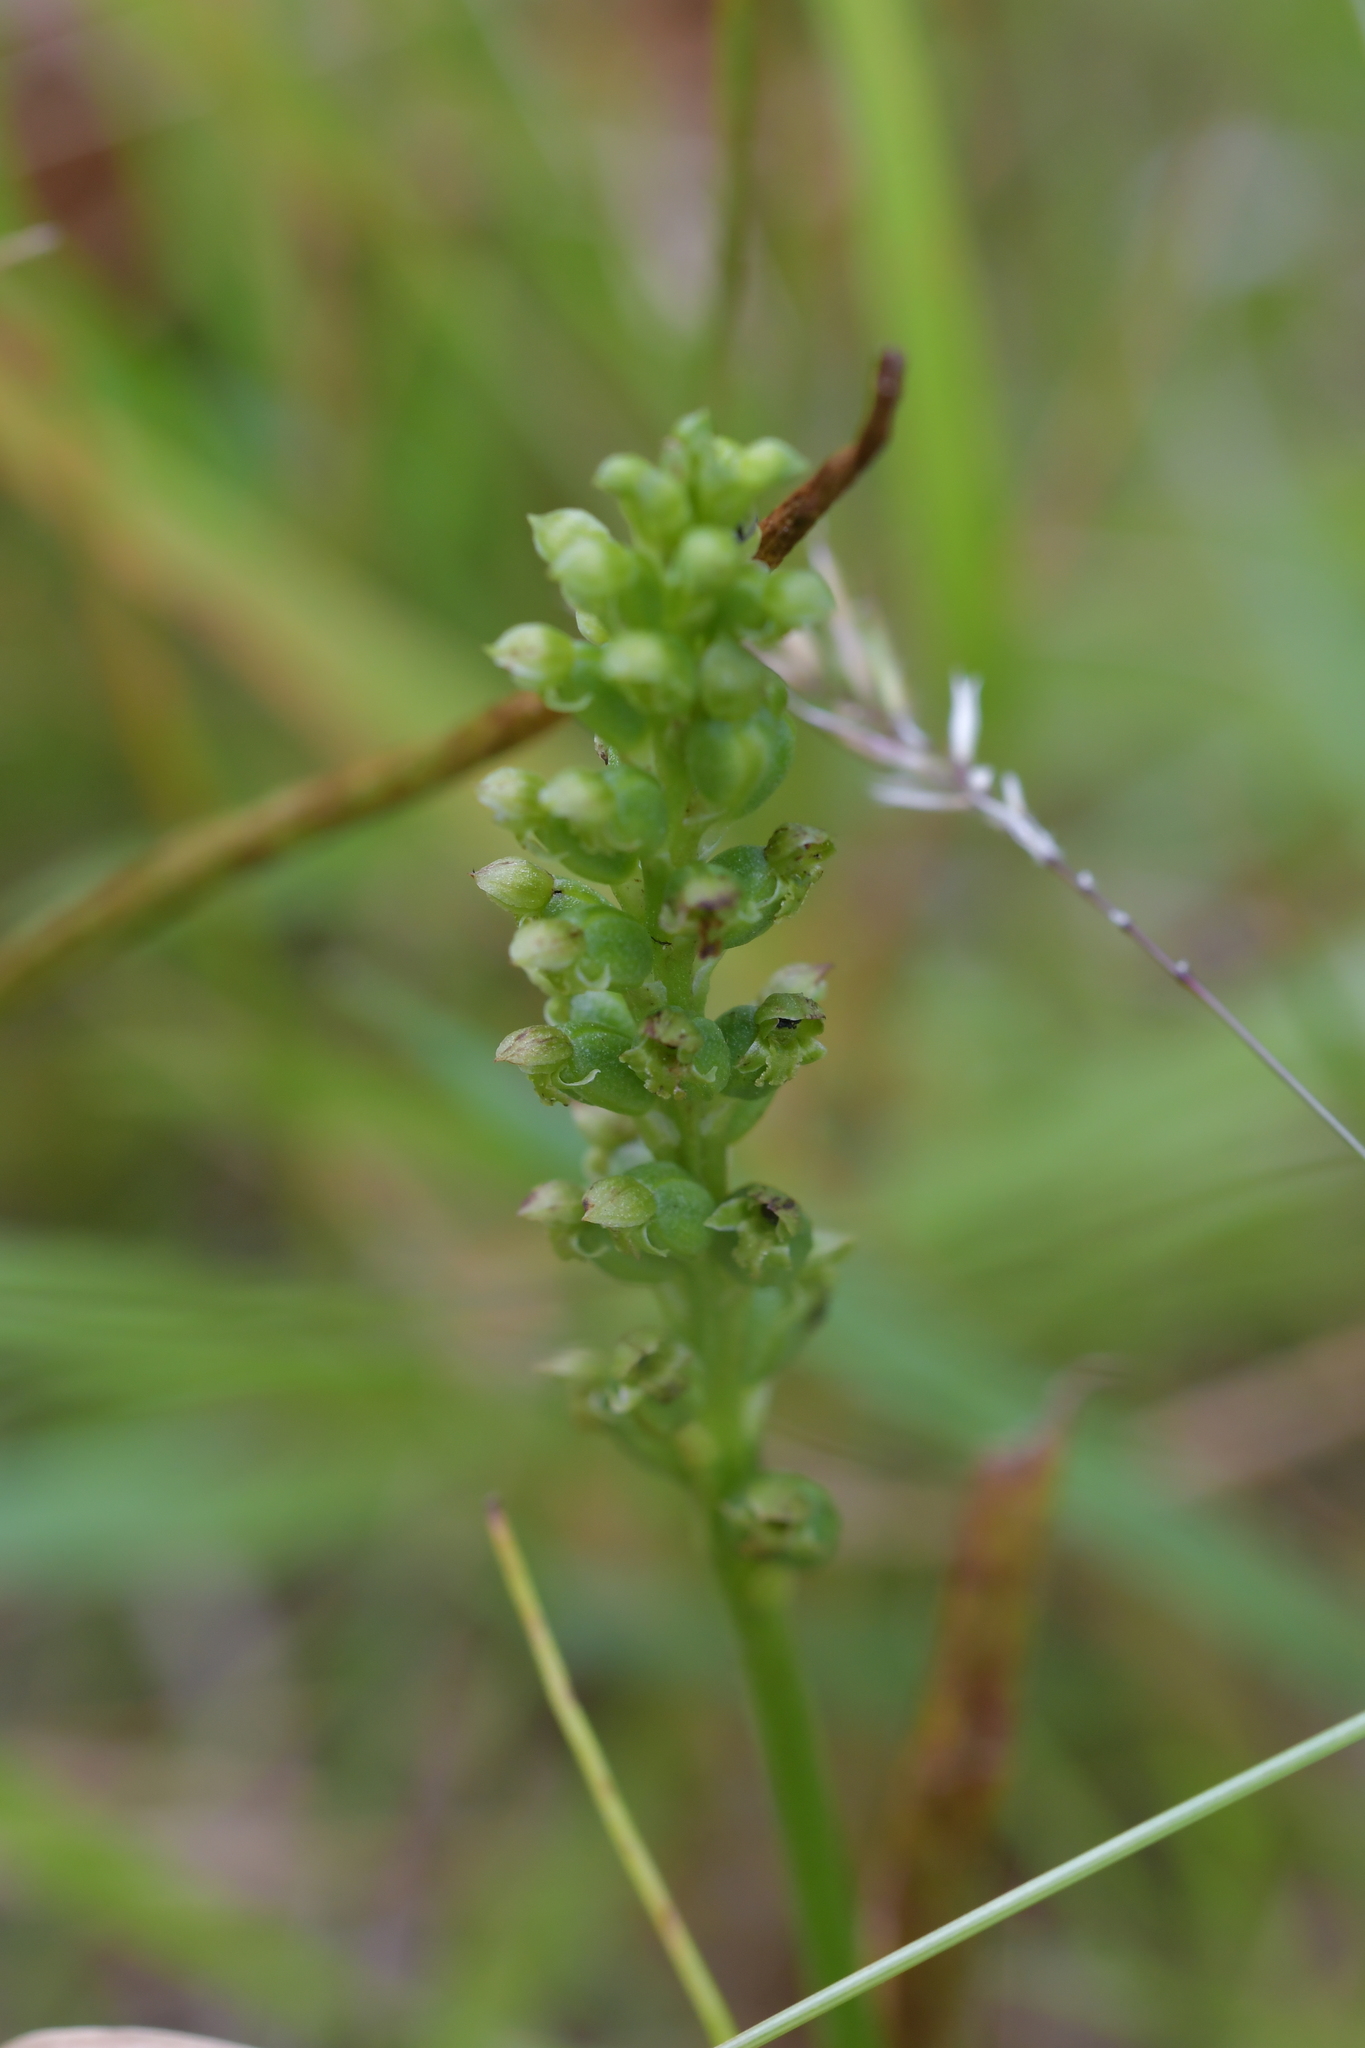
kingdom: Plantae
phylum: Tracheophyta
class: Liliopsida
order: Asparagales
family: Orchidaceae
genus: Microtis
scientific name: Microtis unifolia
